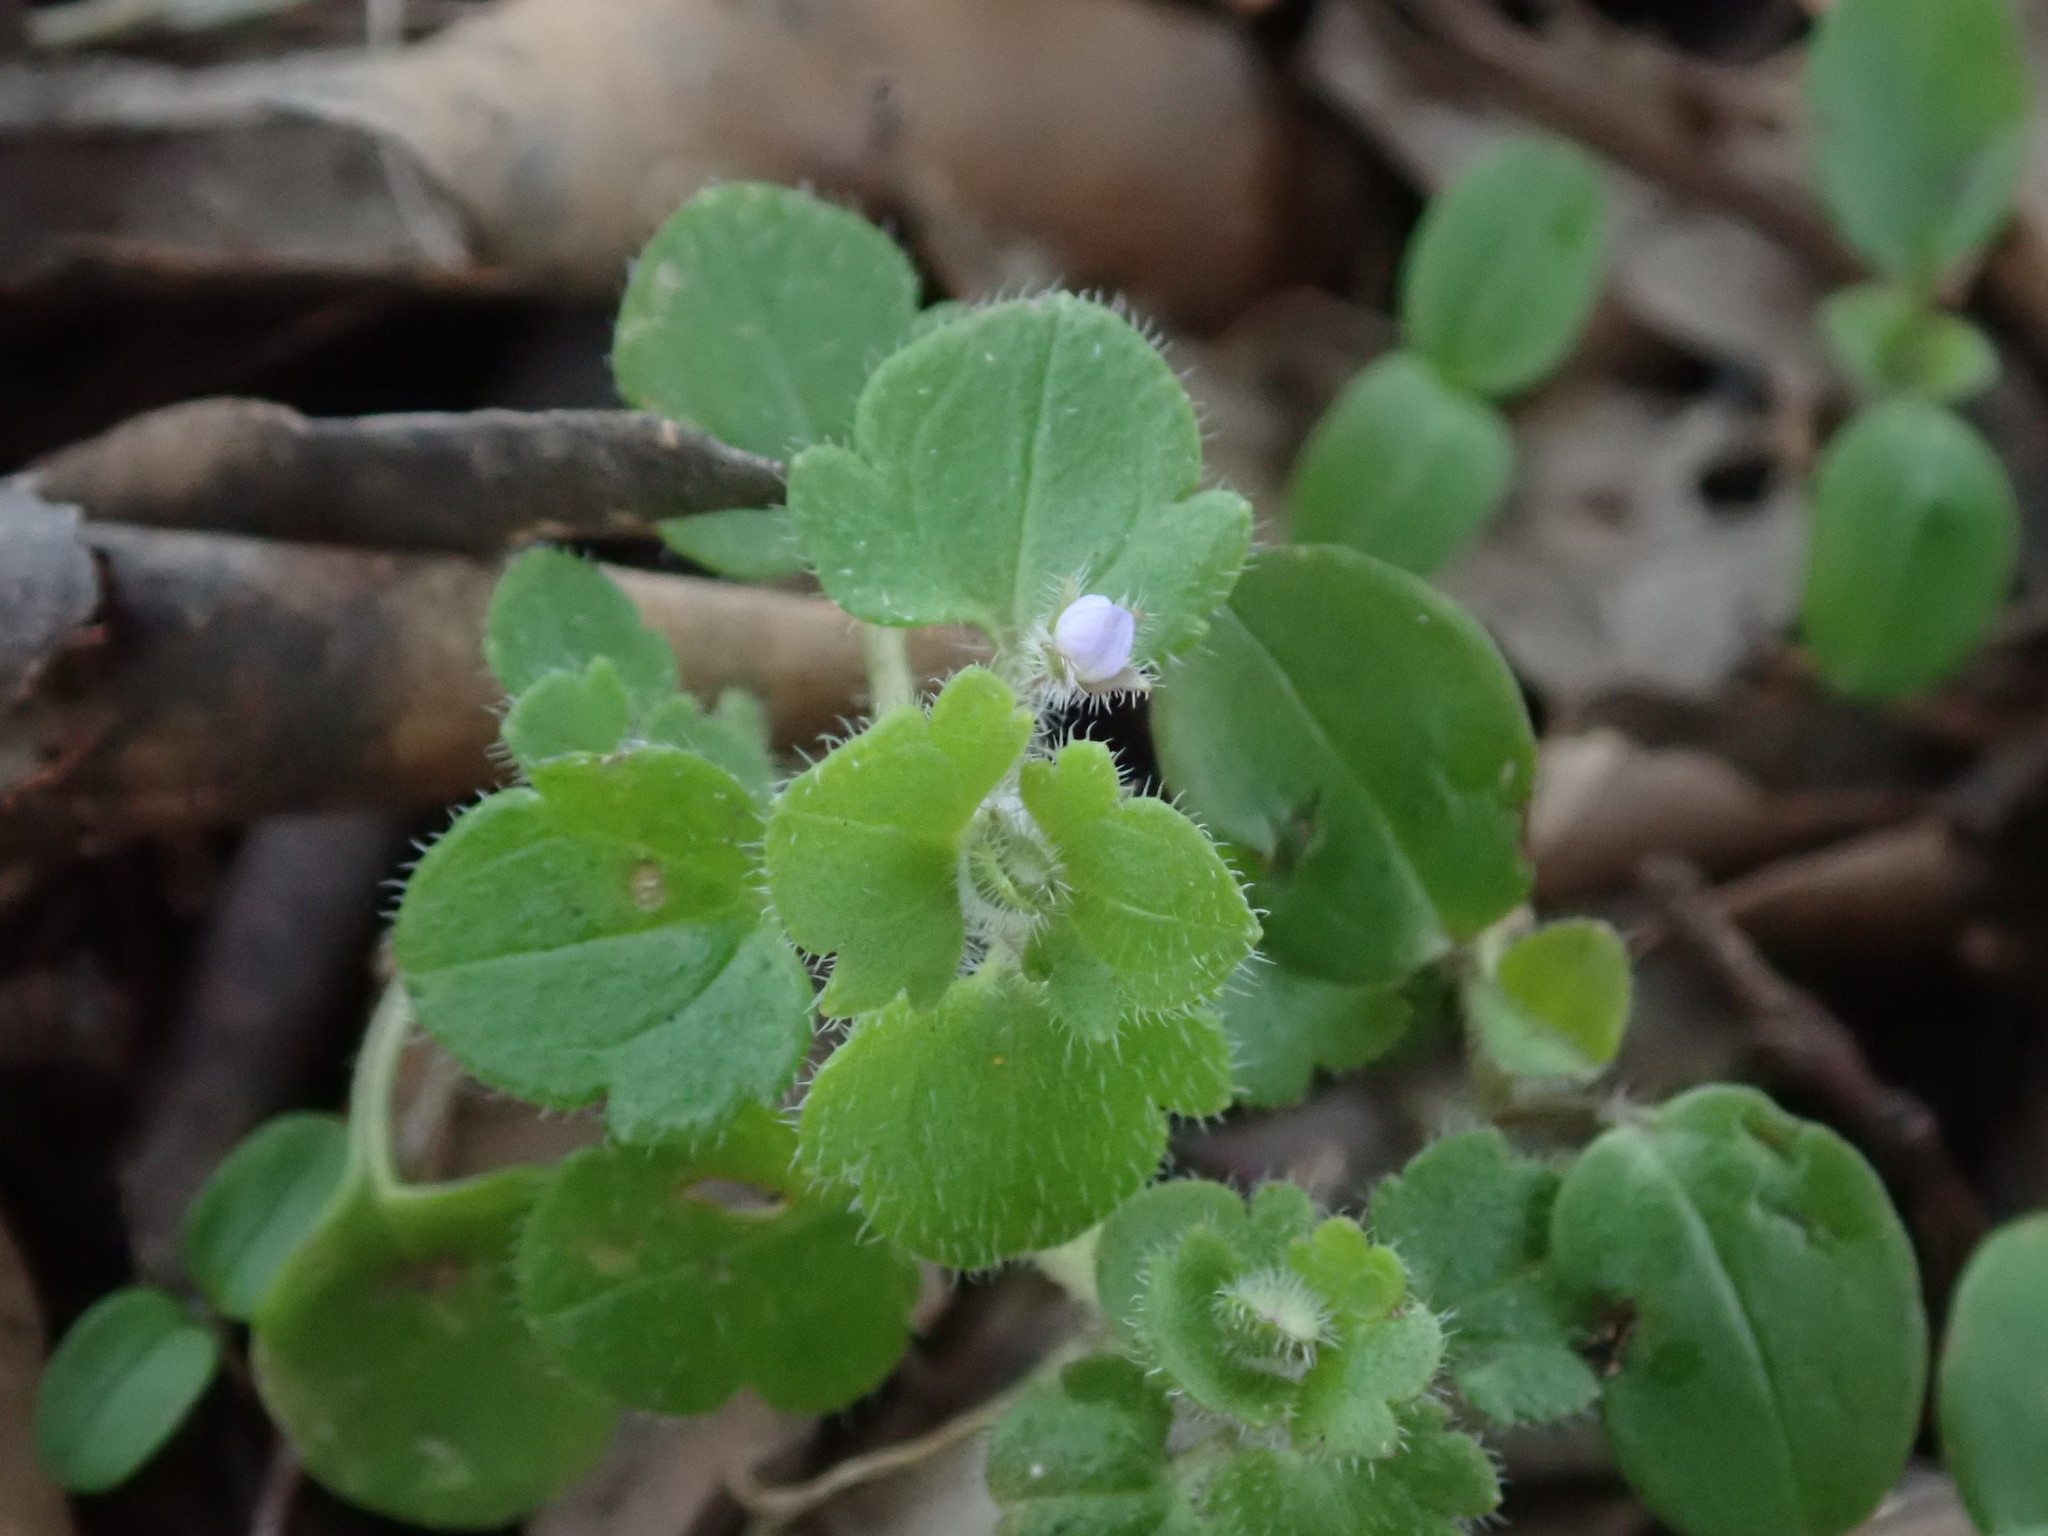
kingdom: Plantae
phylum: Tracheophyta
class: Magnoliopsida
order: Lamiales
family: Plantaginaceae
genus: Veronica
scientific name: Veronica sublobata
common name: False ivy-leaved speedwell
